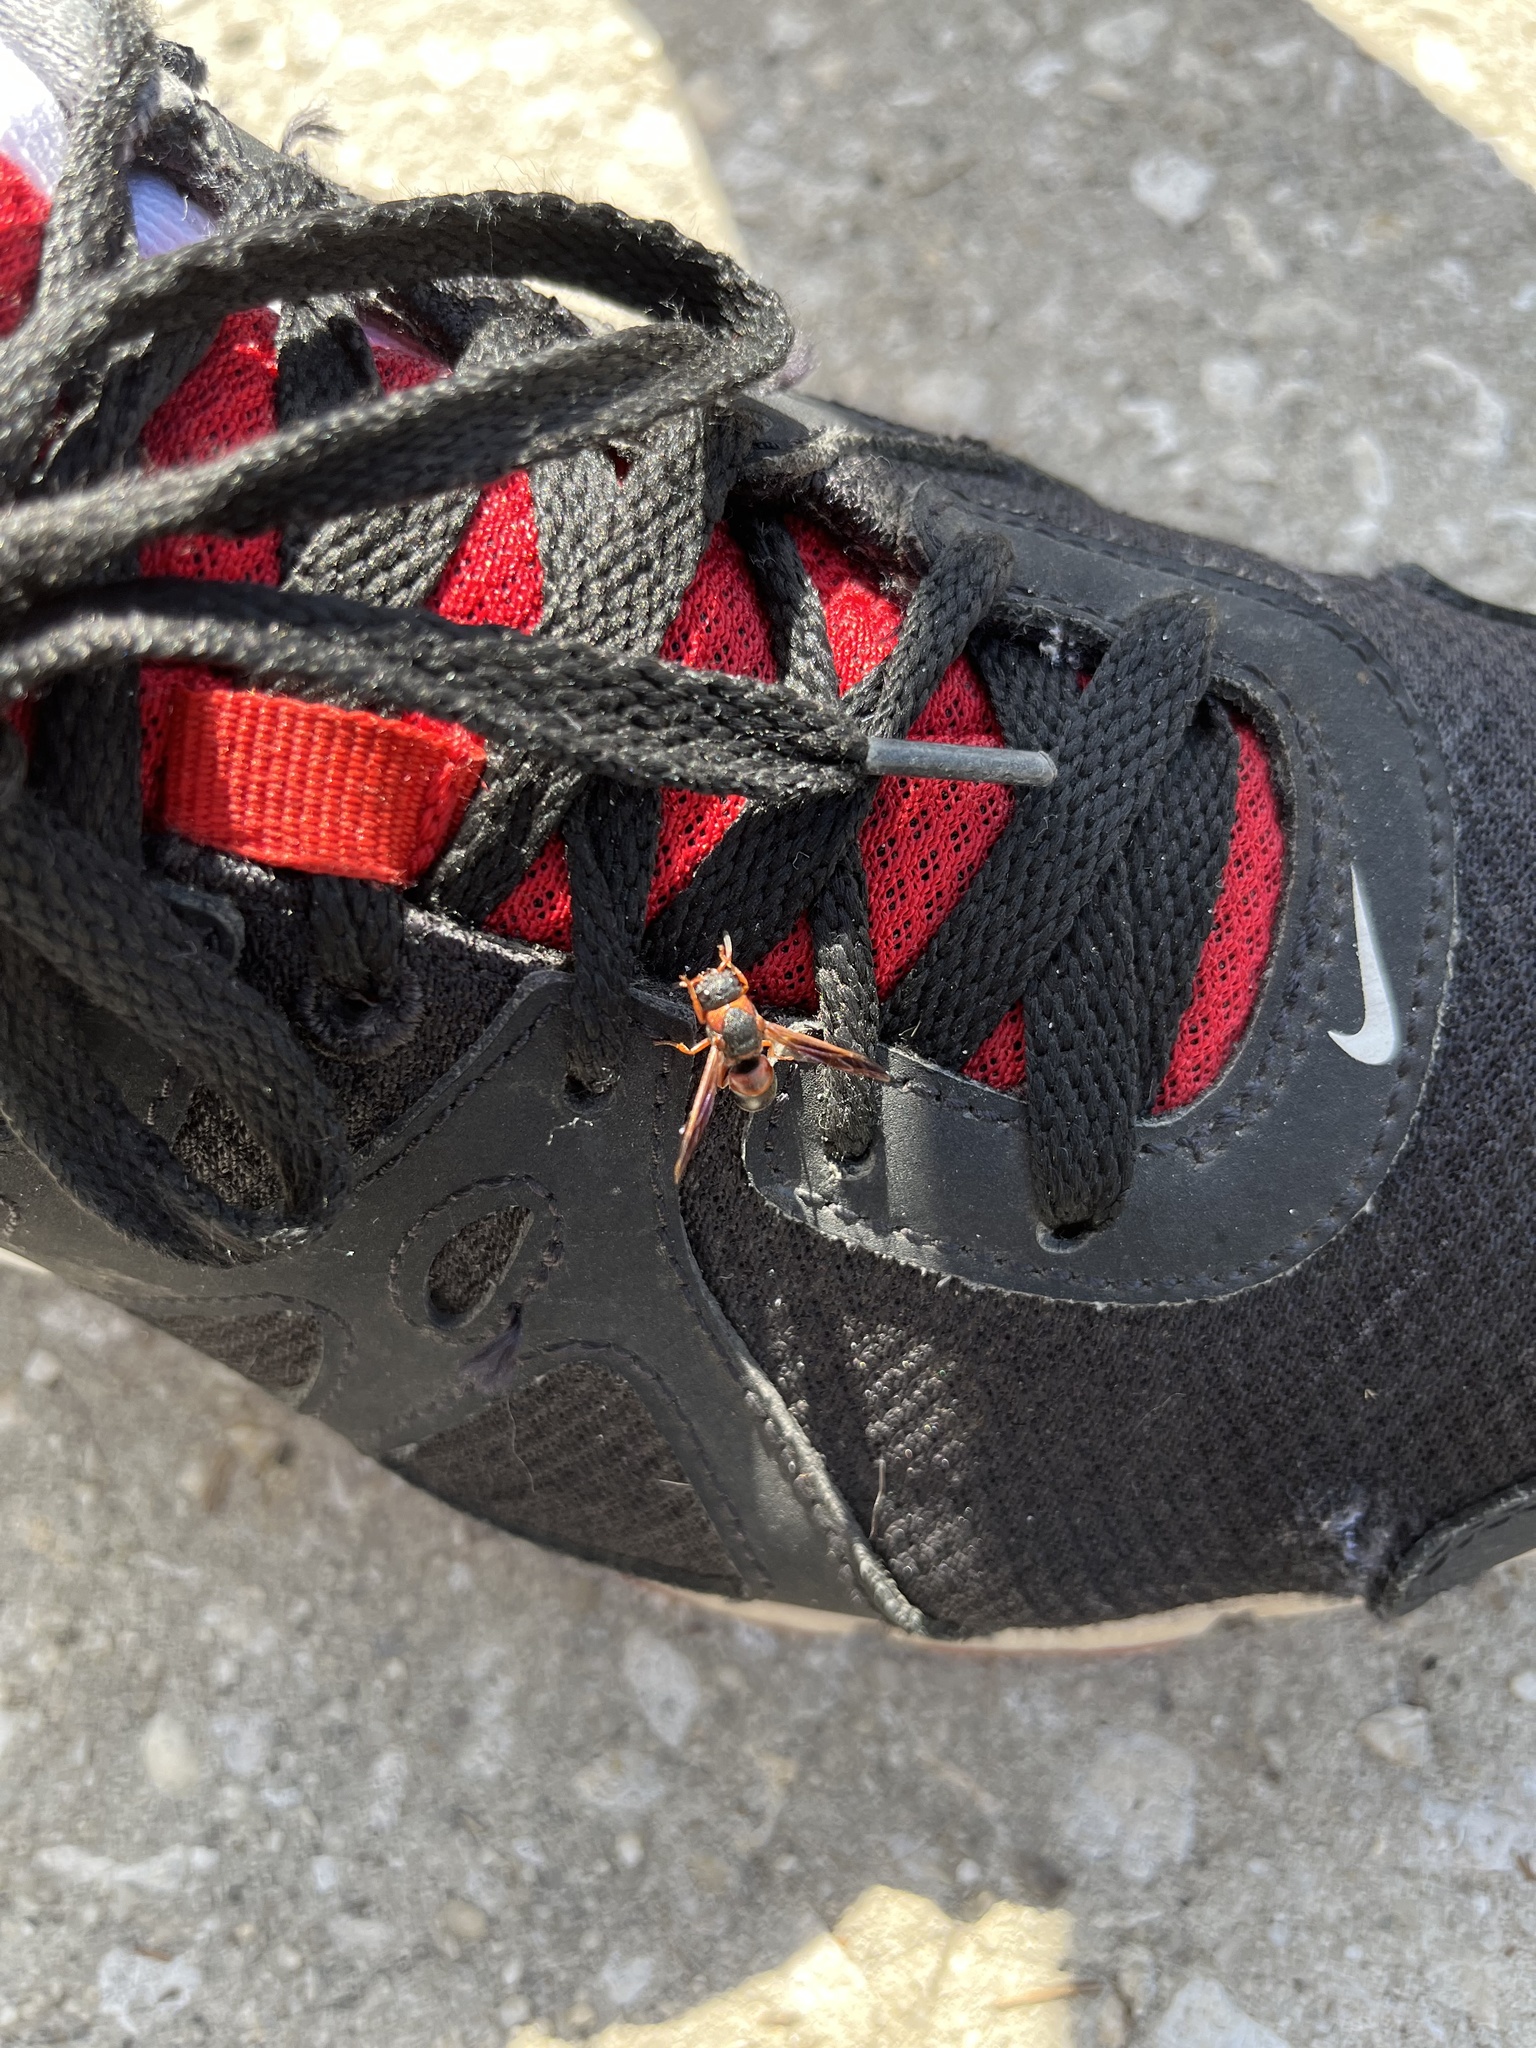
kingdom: Animalia
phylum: Arthropoda
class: Insecta
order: Hymenoptera
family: Eumenidae
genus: Pachodynerus
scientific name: Pachodynerus erynnis
